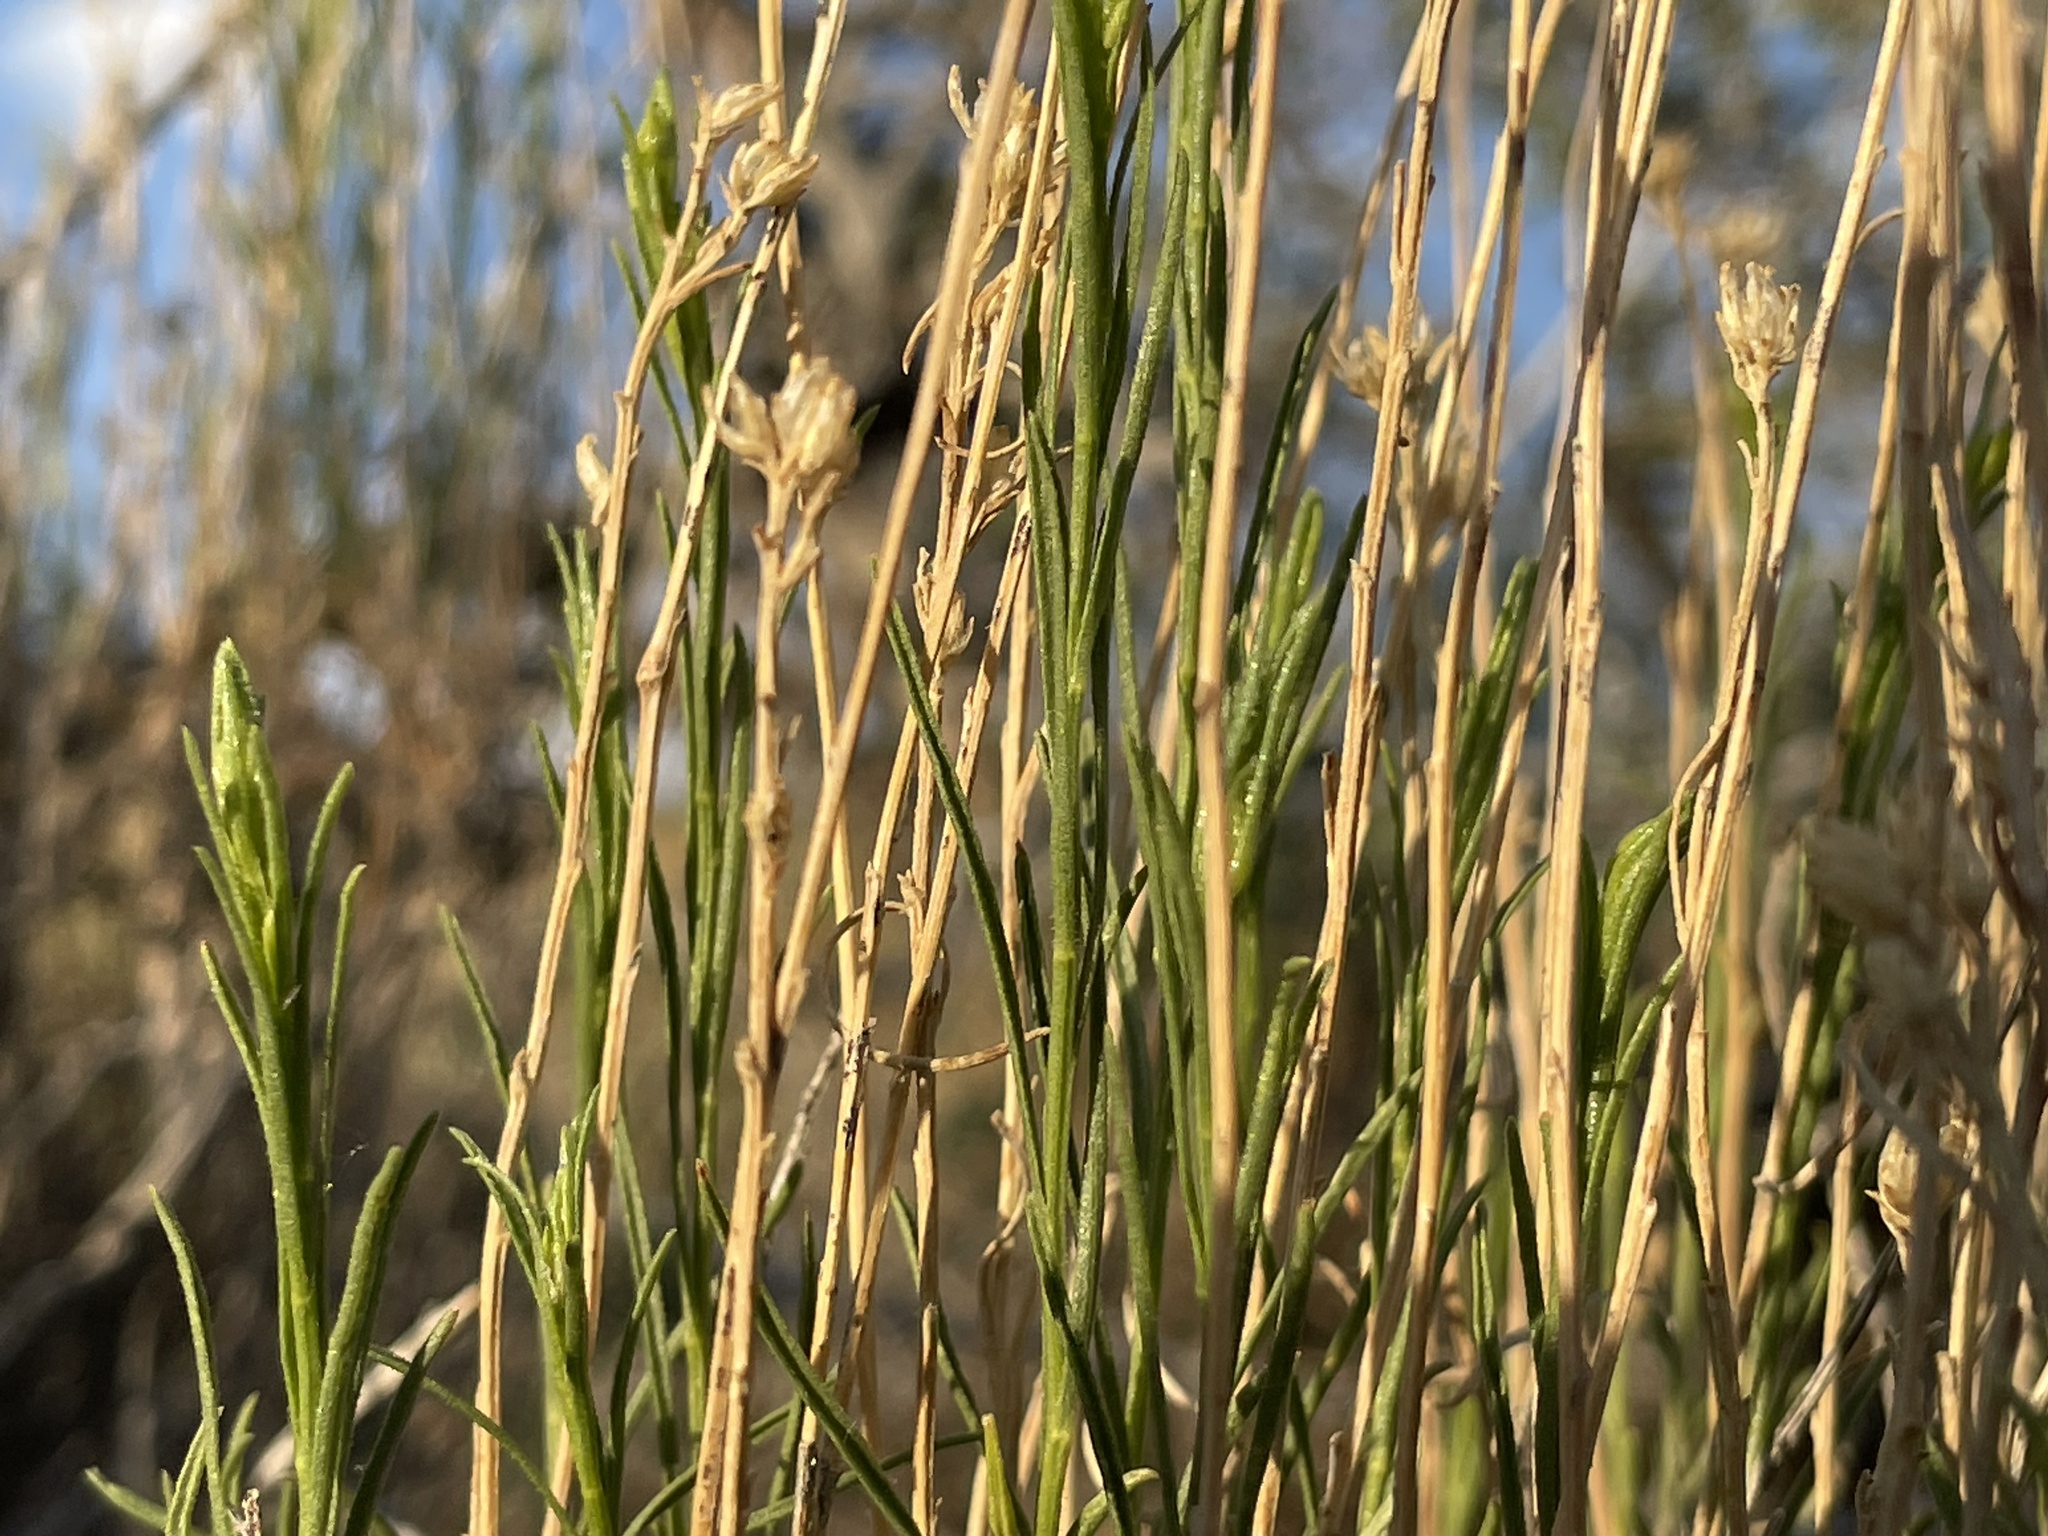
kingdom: Plantae
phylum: Tracheophyta
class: Magnoliopsida
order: Asterales
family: Asteraceae
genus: Gutierrezia
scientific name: Gutierrezia sarothrae
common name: Broom snakeweed
